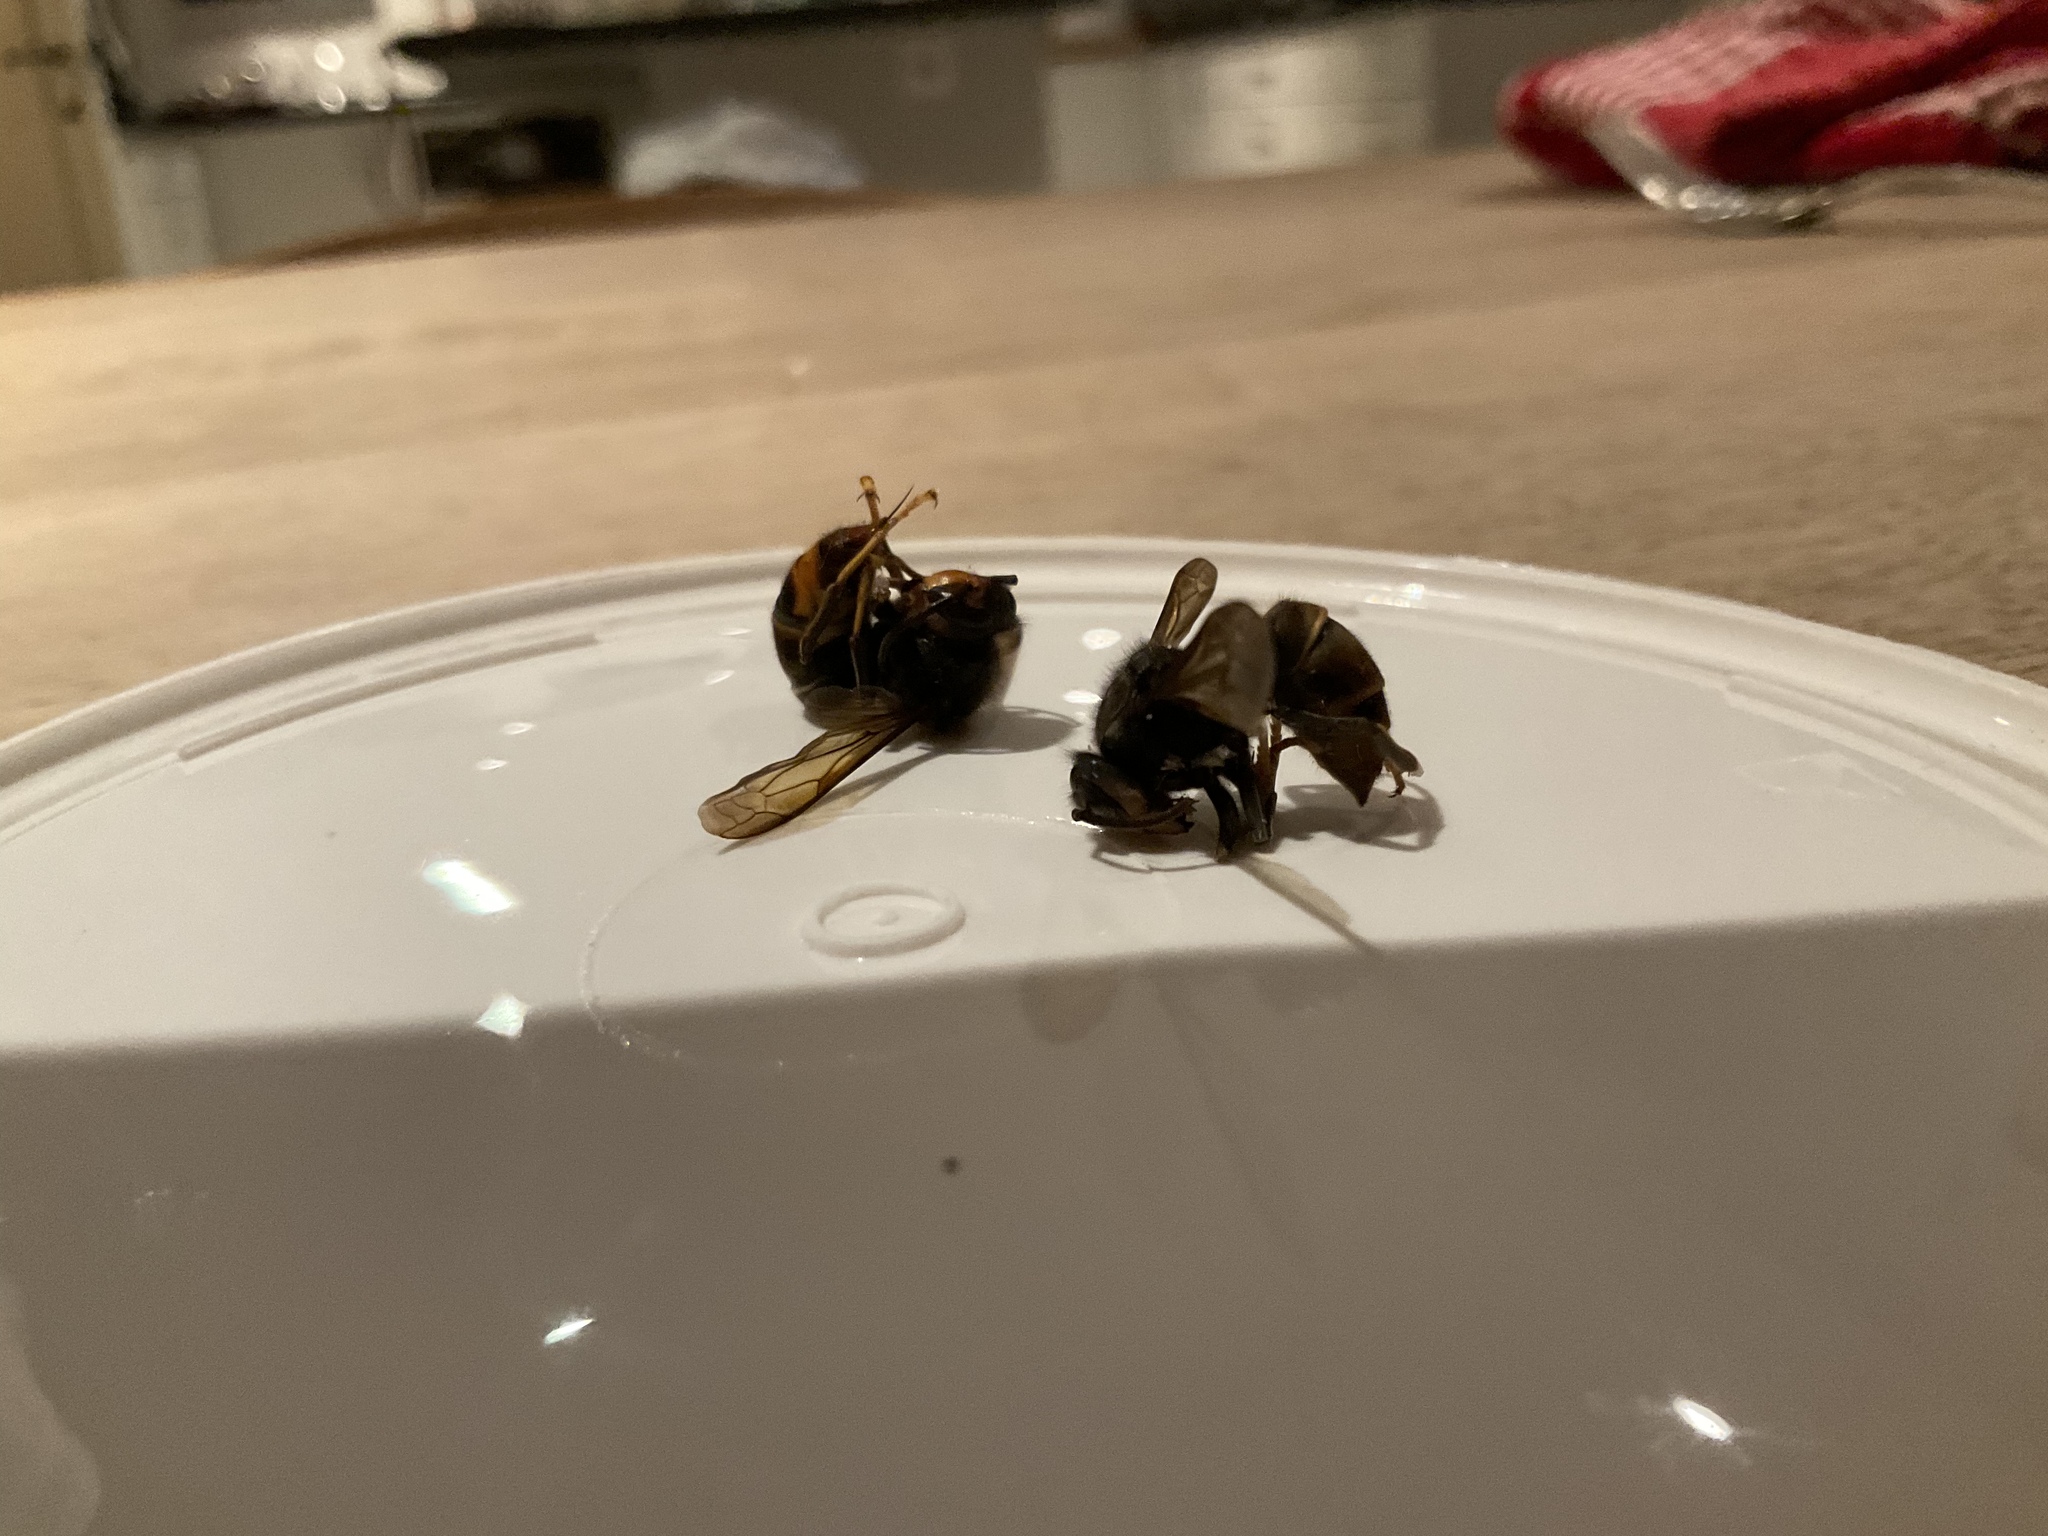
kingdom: Animalia
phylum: Arthropoda
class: Insecta
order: Hymenoptera
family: Vespidae
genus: Vespa
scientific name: Vespa velutina
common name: Asian hornet
